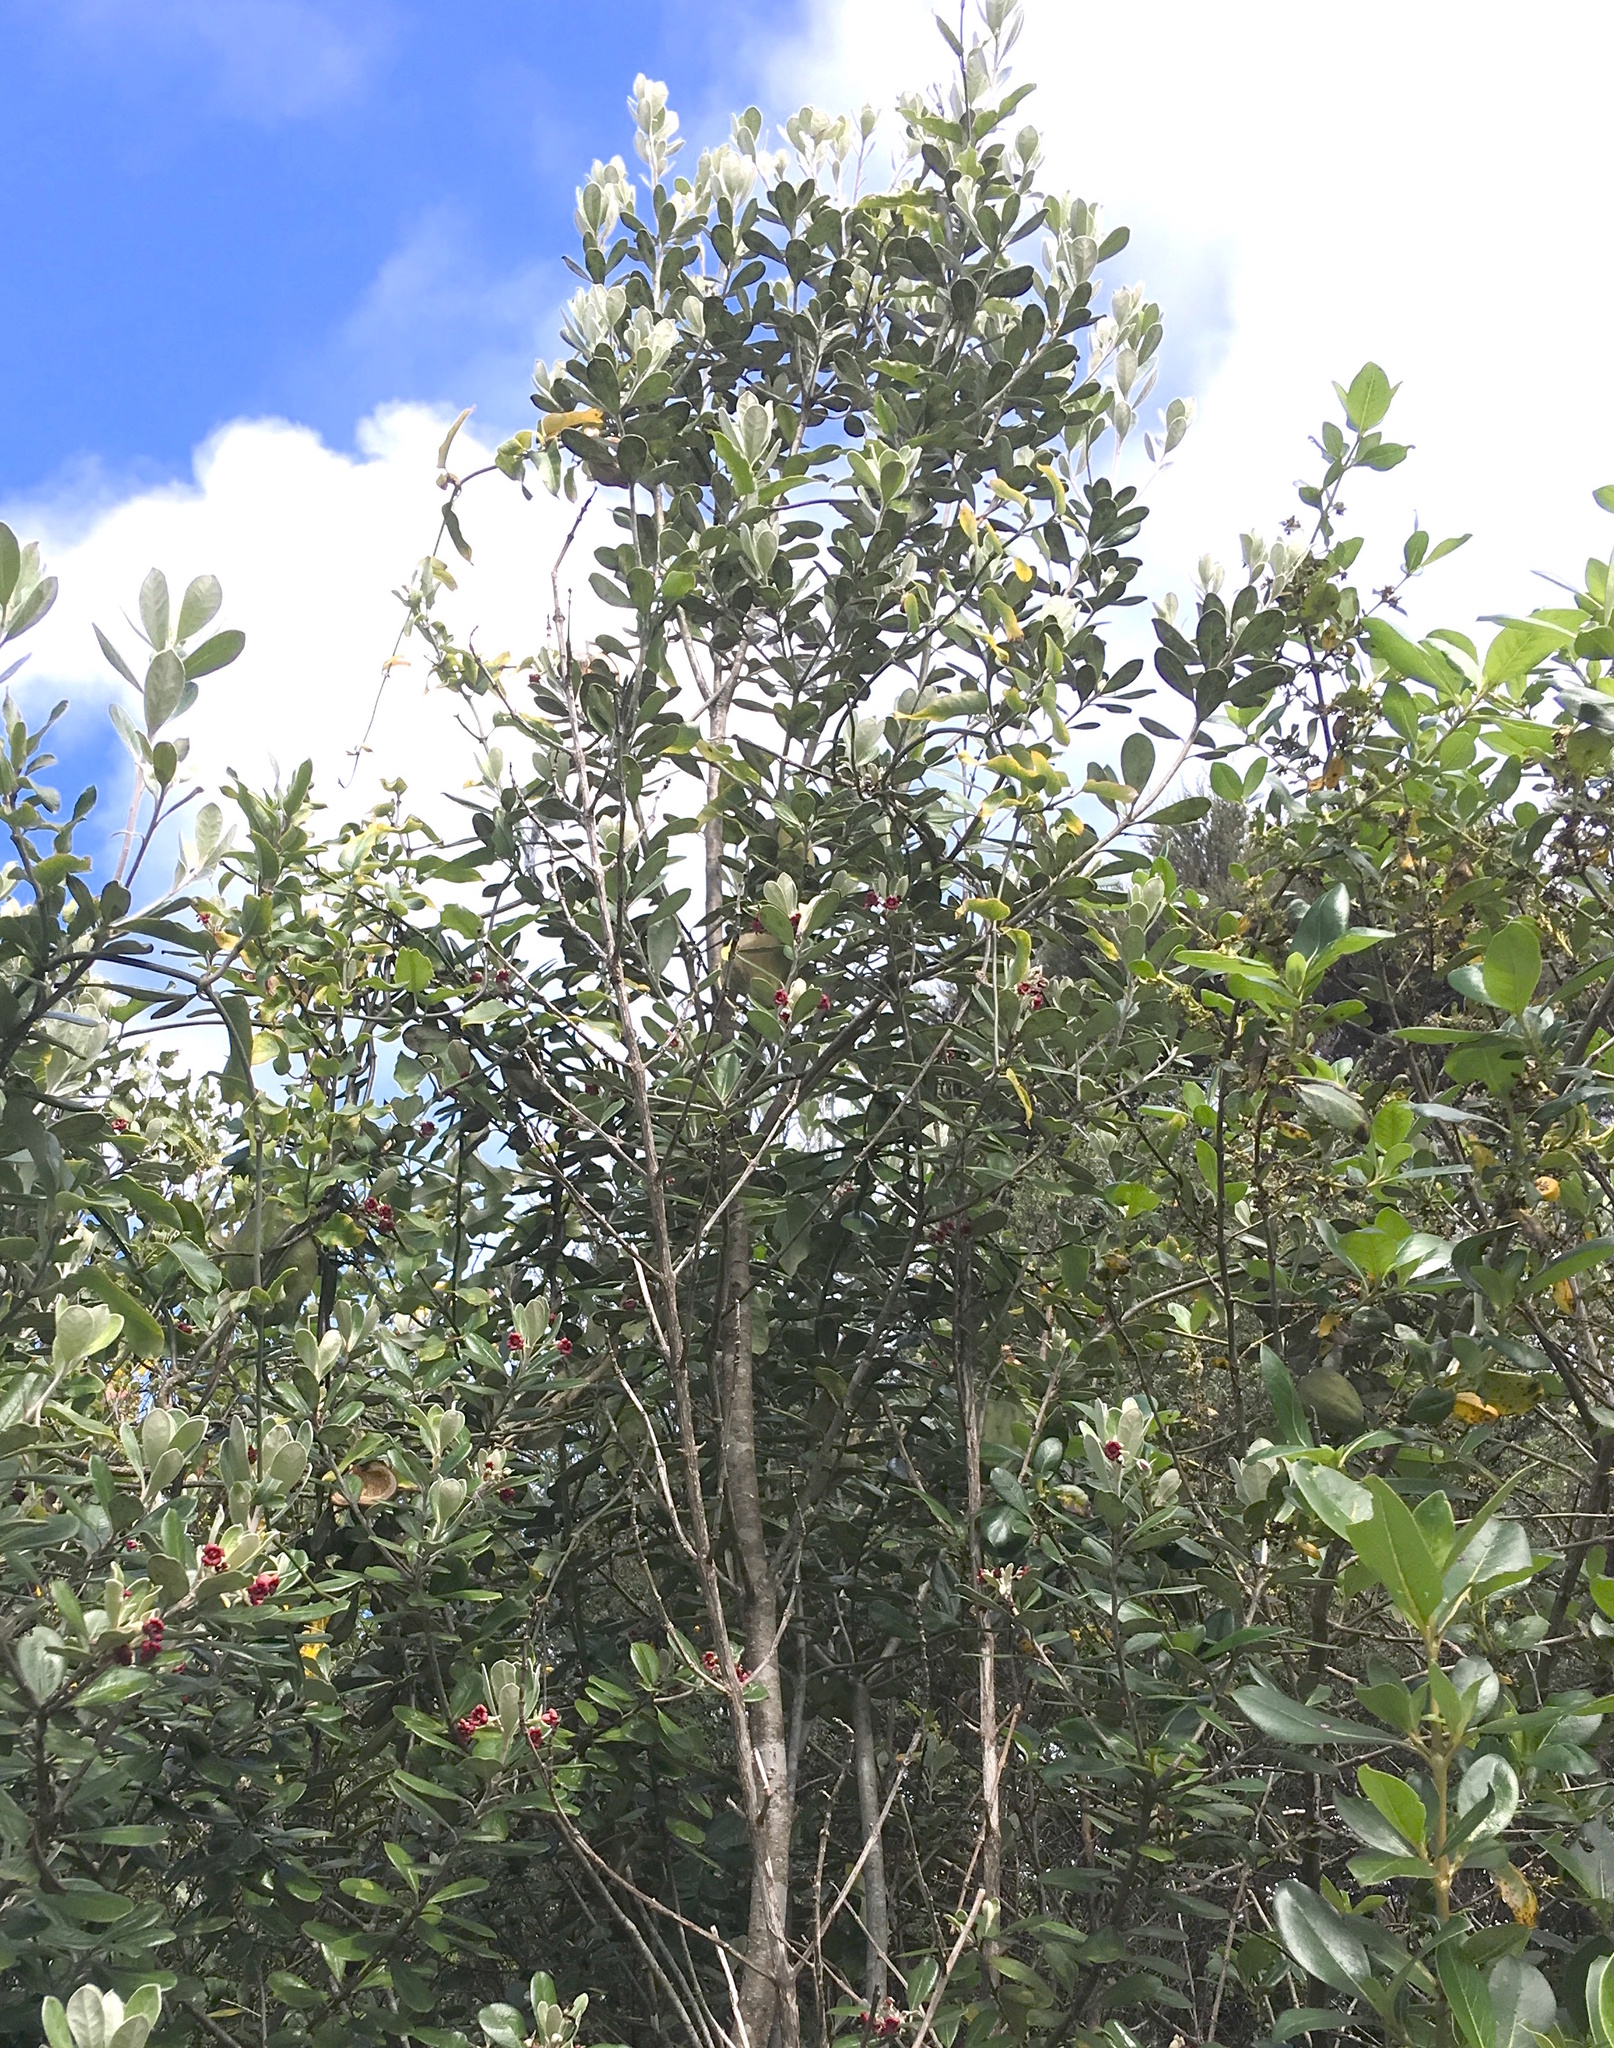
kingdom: Plantae
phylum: Tracheophyta
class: Magnoliopsida
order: Apiales
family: Pittosporaceae
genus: Pittosporum
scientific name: Pittosporum crassifolium
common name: Karo
